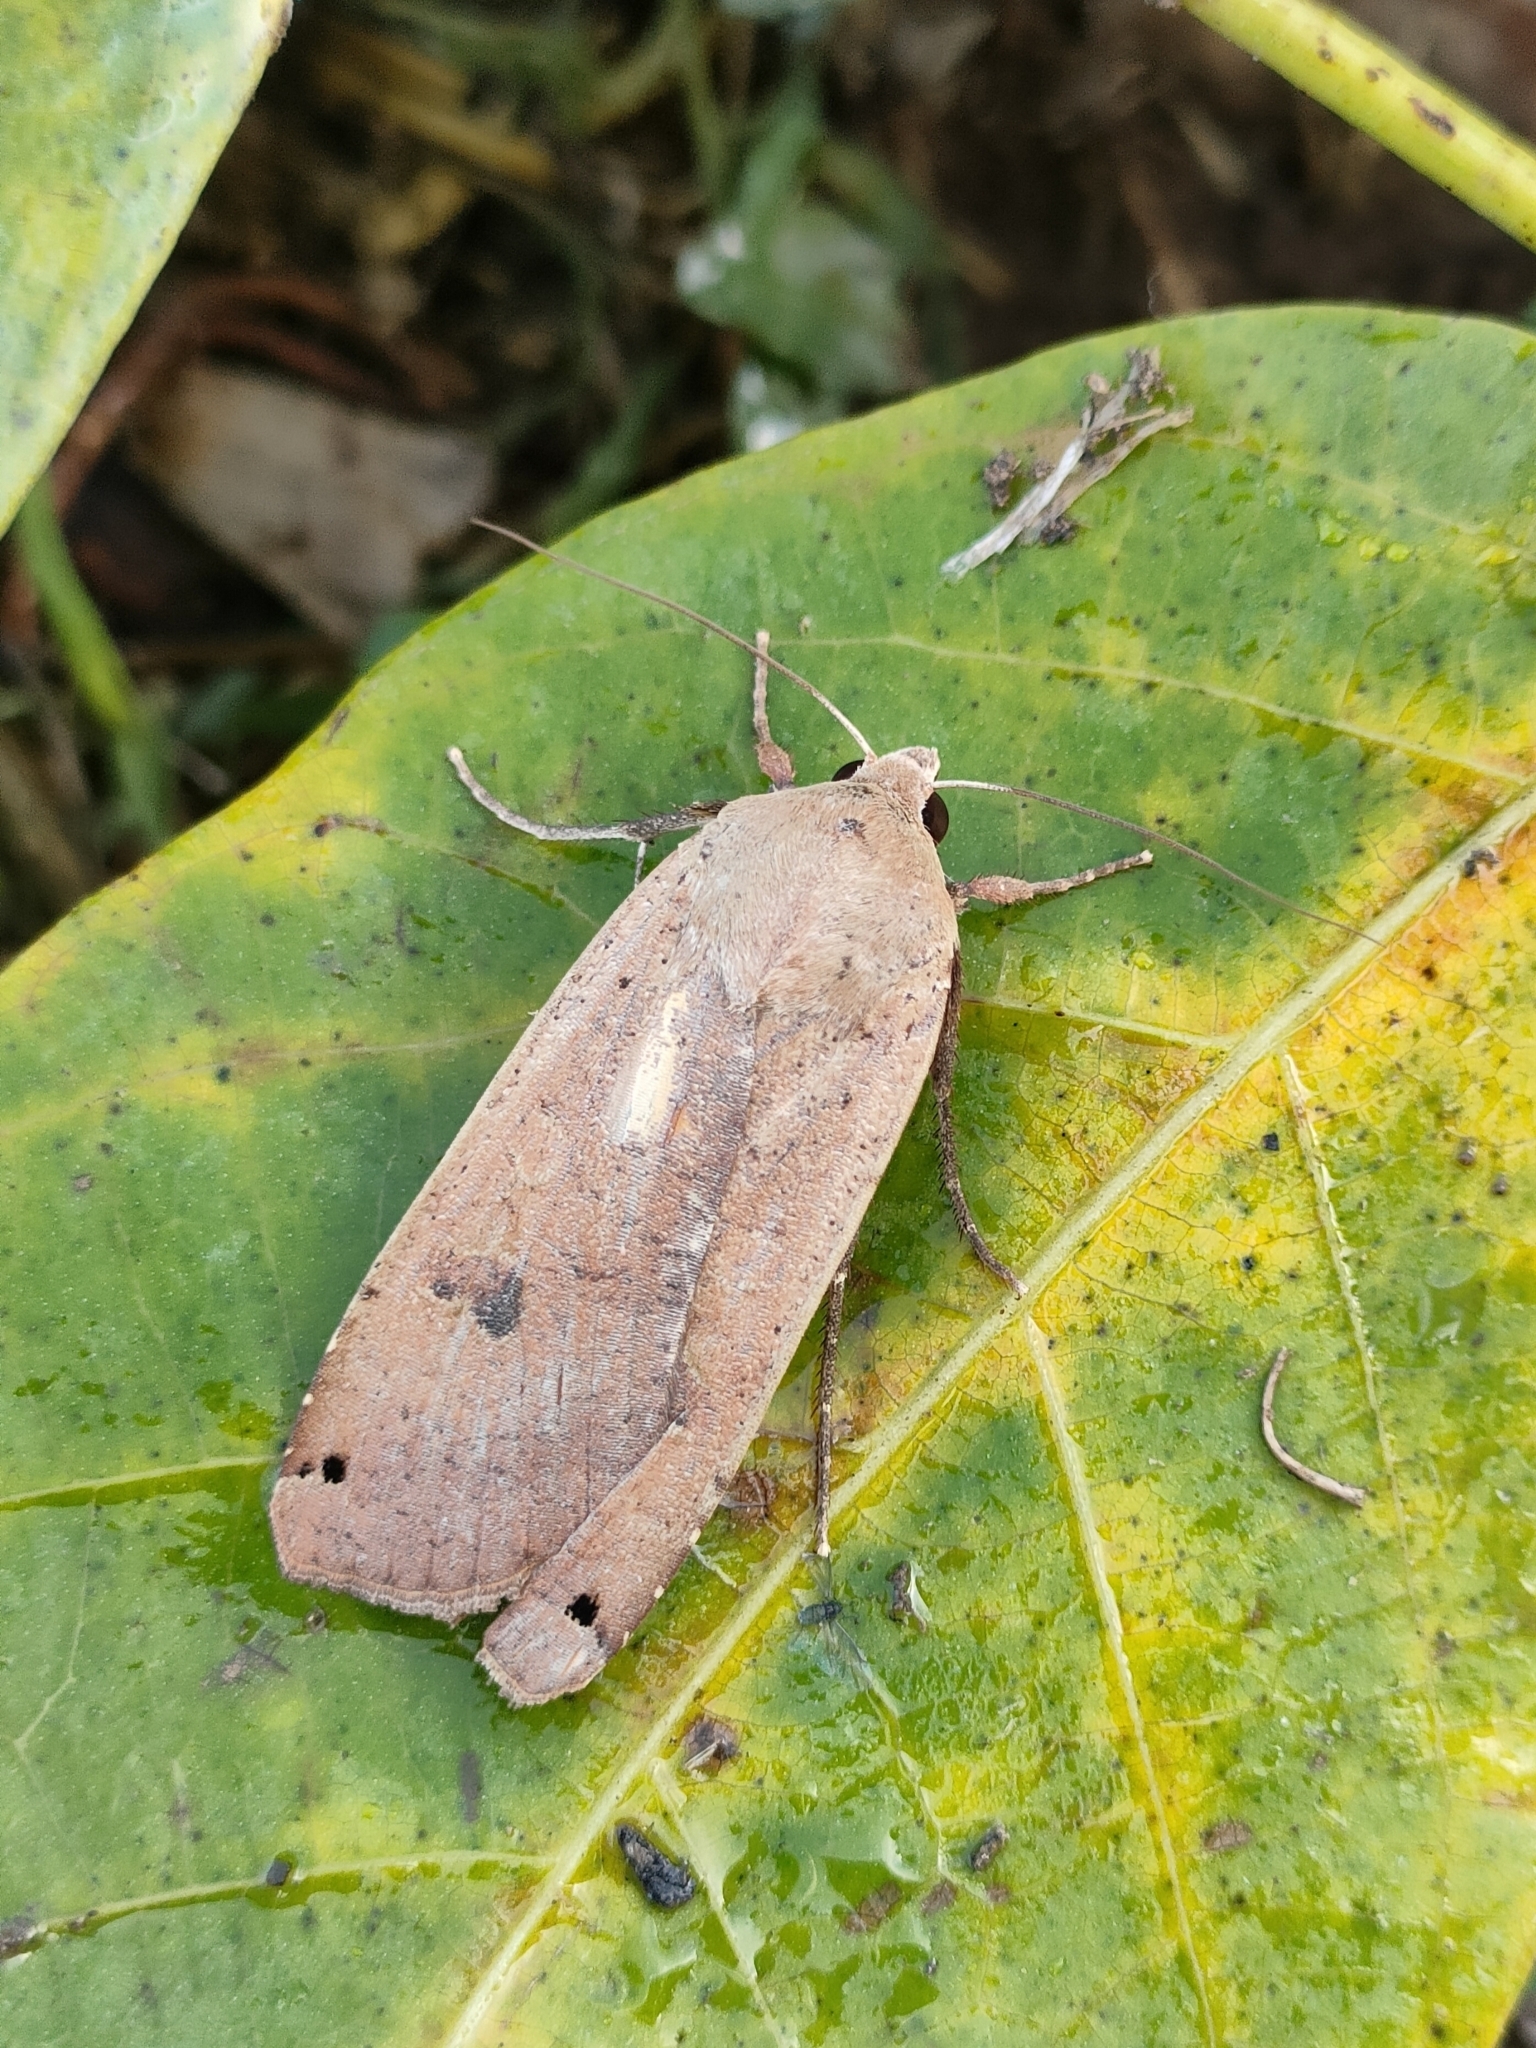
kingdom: Animalia
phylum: Arthropoda
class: Insecta
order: Lepidoptera
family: Noctuidae
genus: Noctua
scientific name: Noctua pronuba
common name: Large yellow underwing
